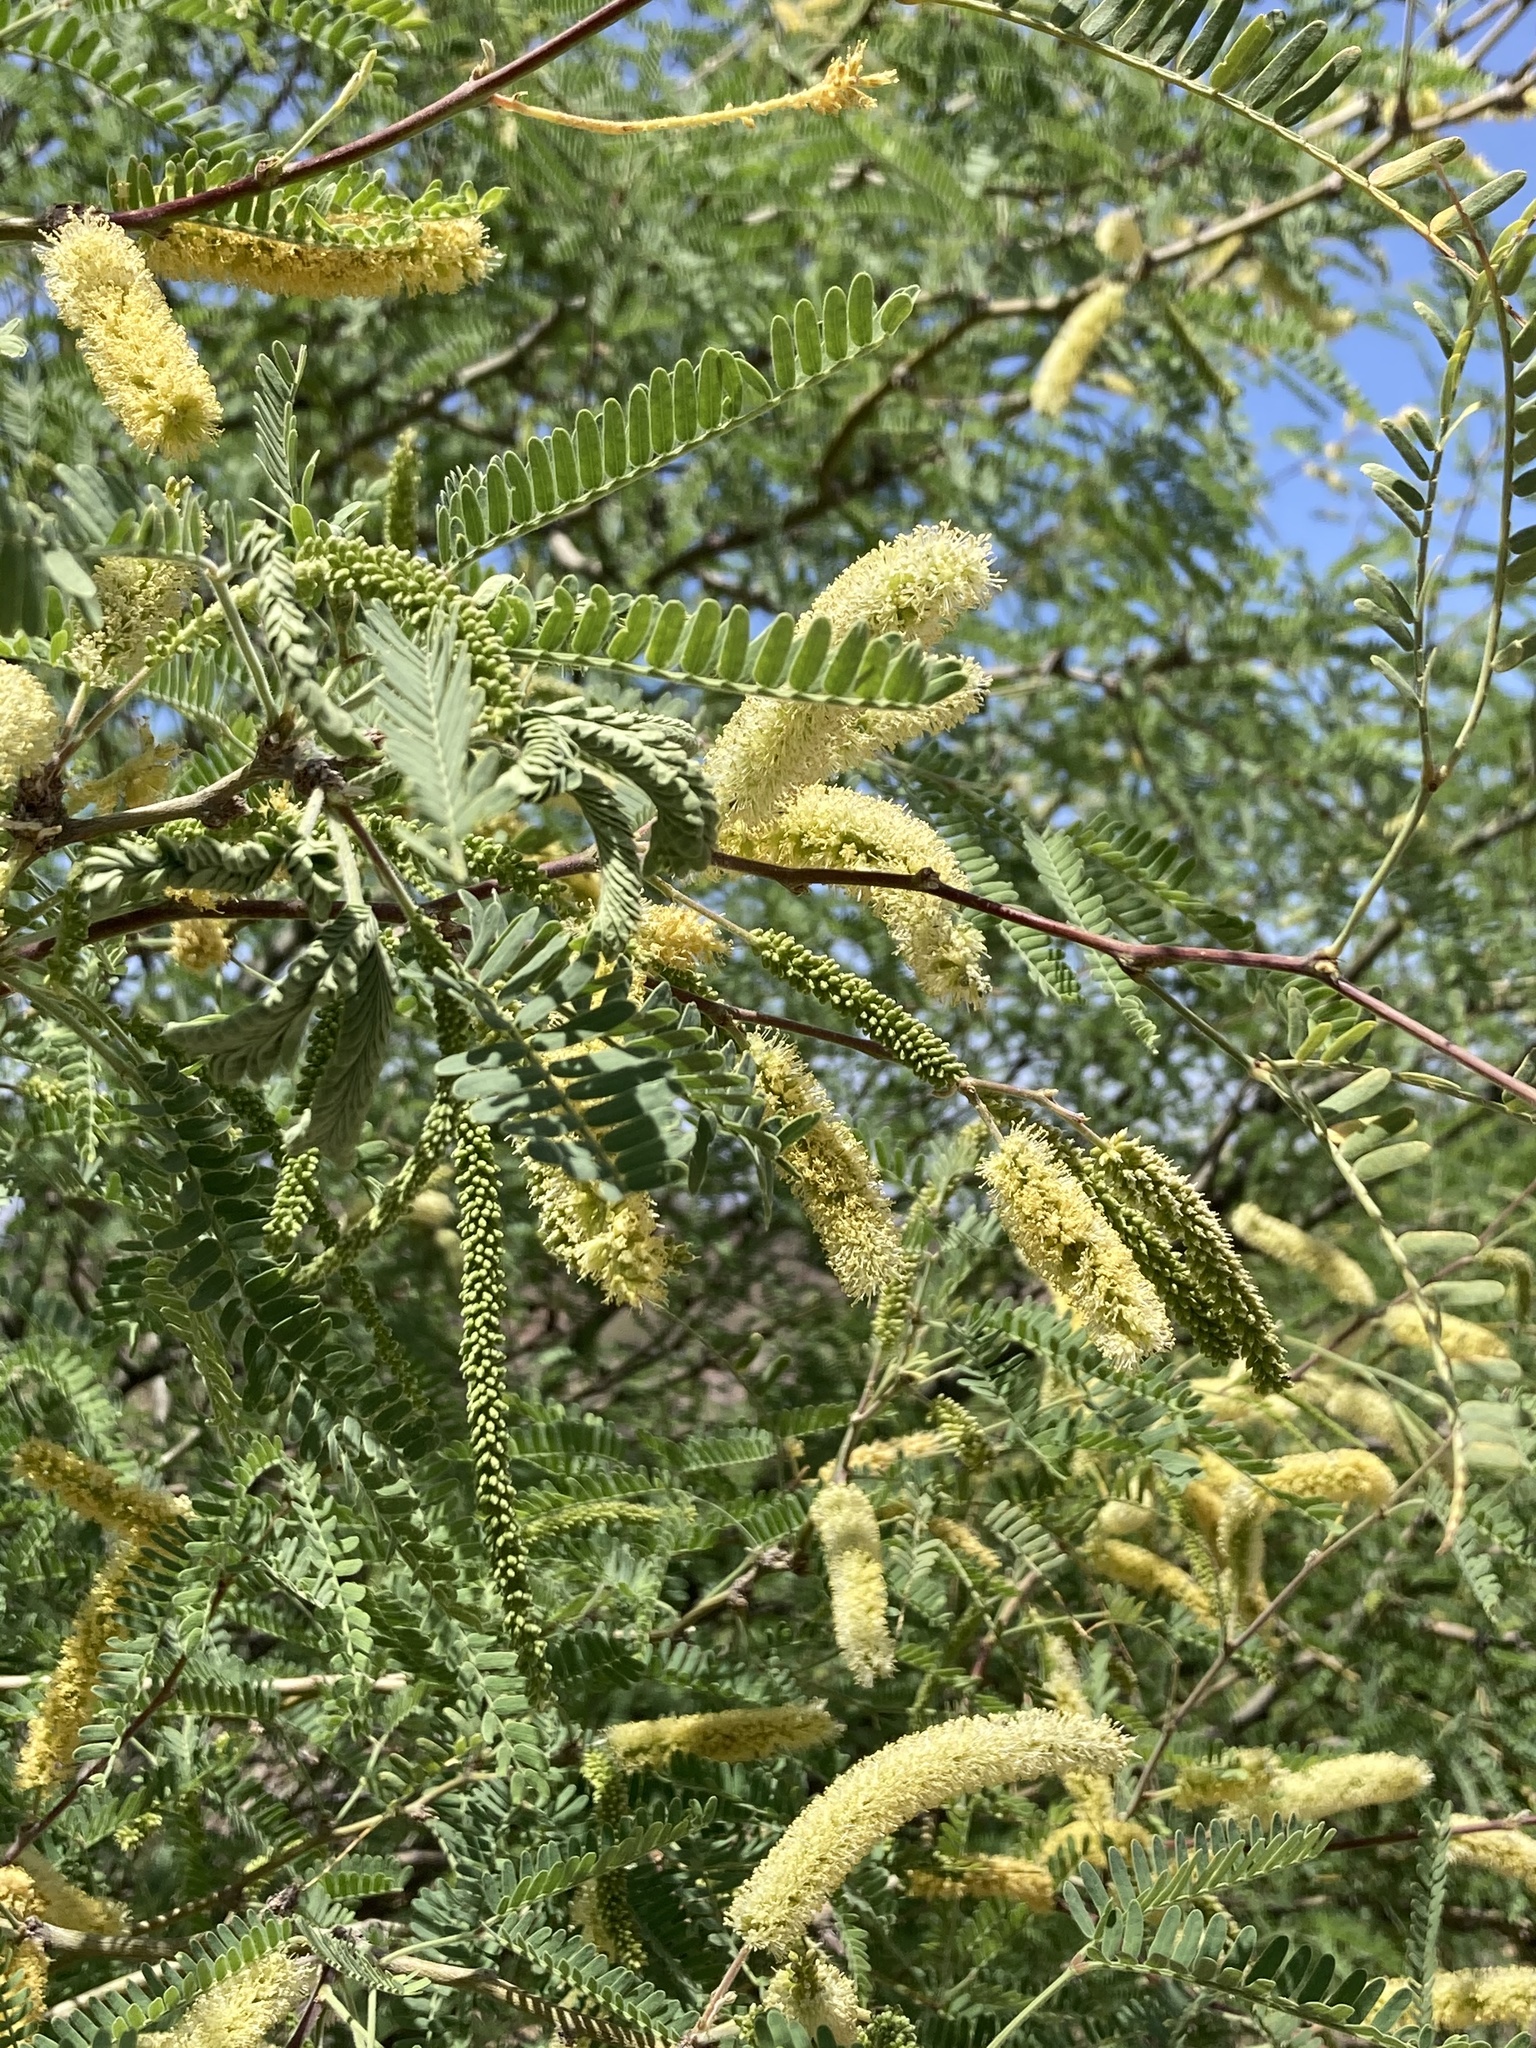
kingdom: Plantae
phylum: Tracheophyta
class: Magnoliopsida
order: Fabales
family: Fabaceae
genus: Prosopis
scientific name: Prosopis velutina
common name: Velvet mesquite
